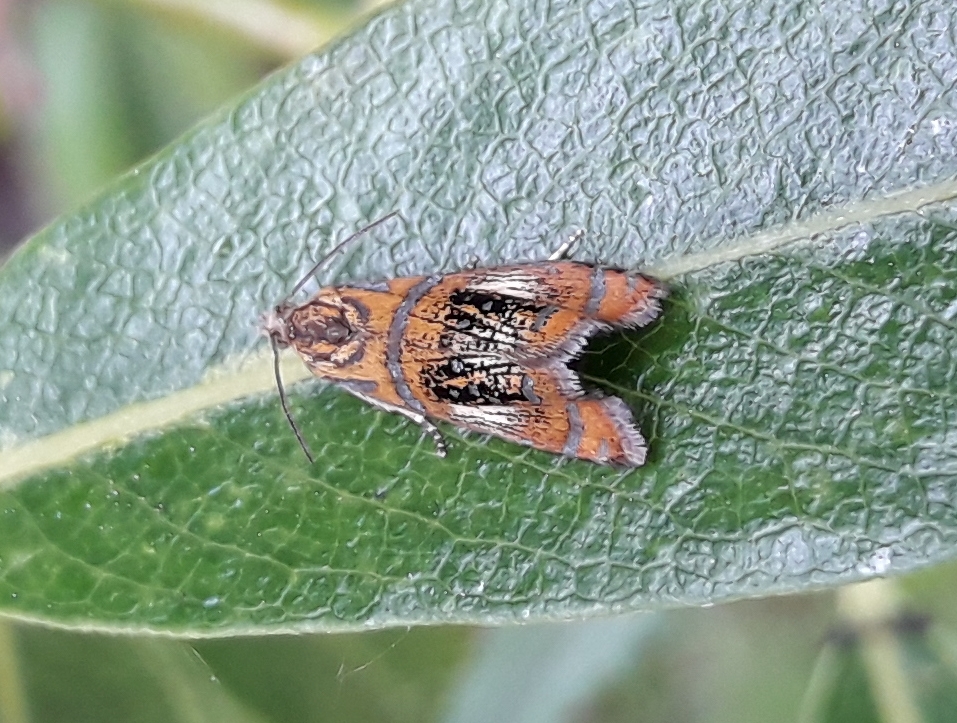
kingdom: Animalia
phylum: Arthropoda
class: Insecta
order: Lepidoptera
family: Tortricidae
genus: Olethreutes
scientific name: Olethreutes arcuella
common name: Arched marble
